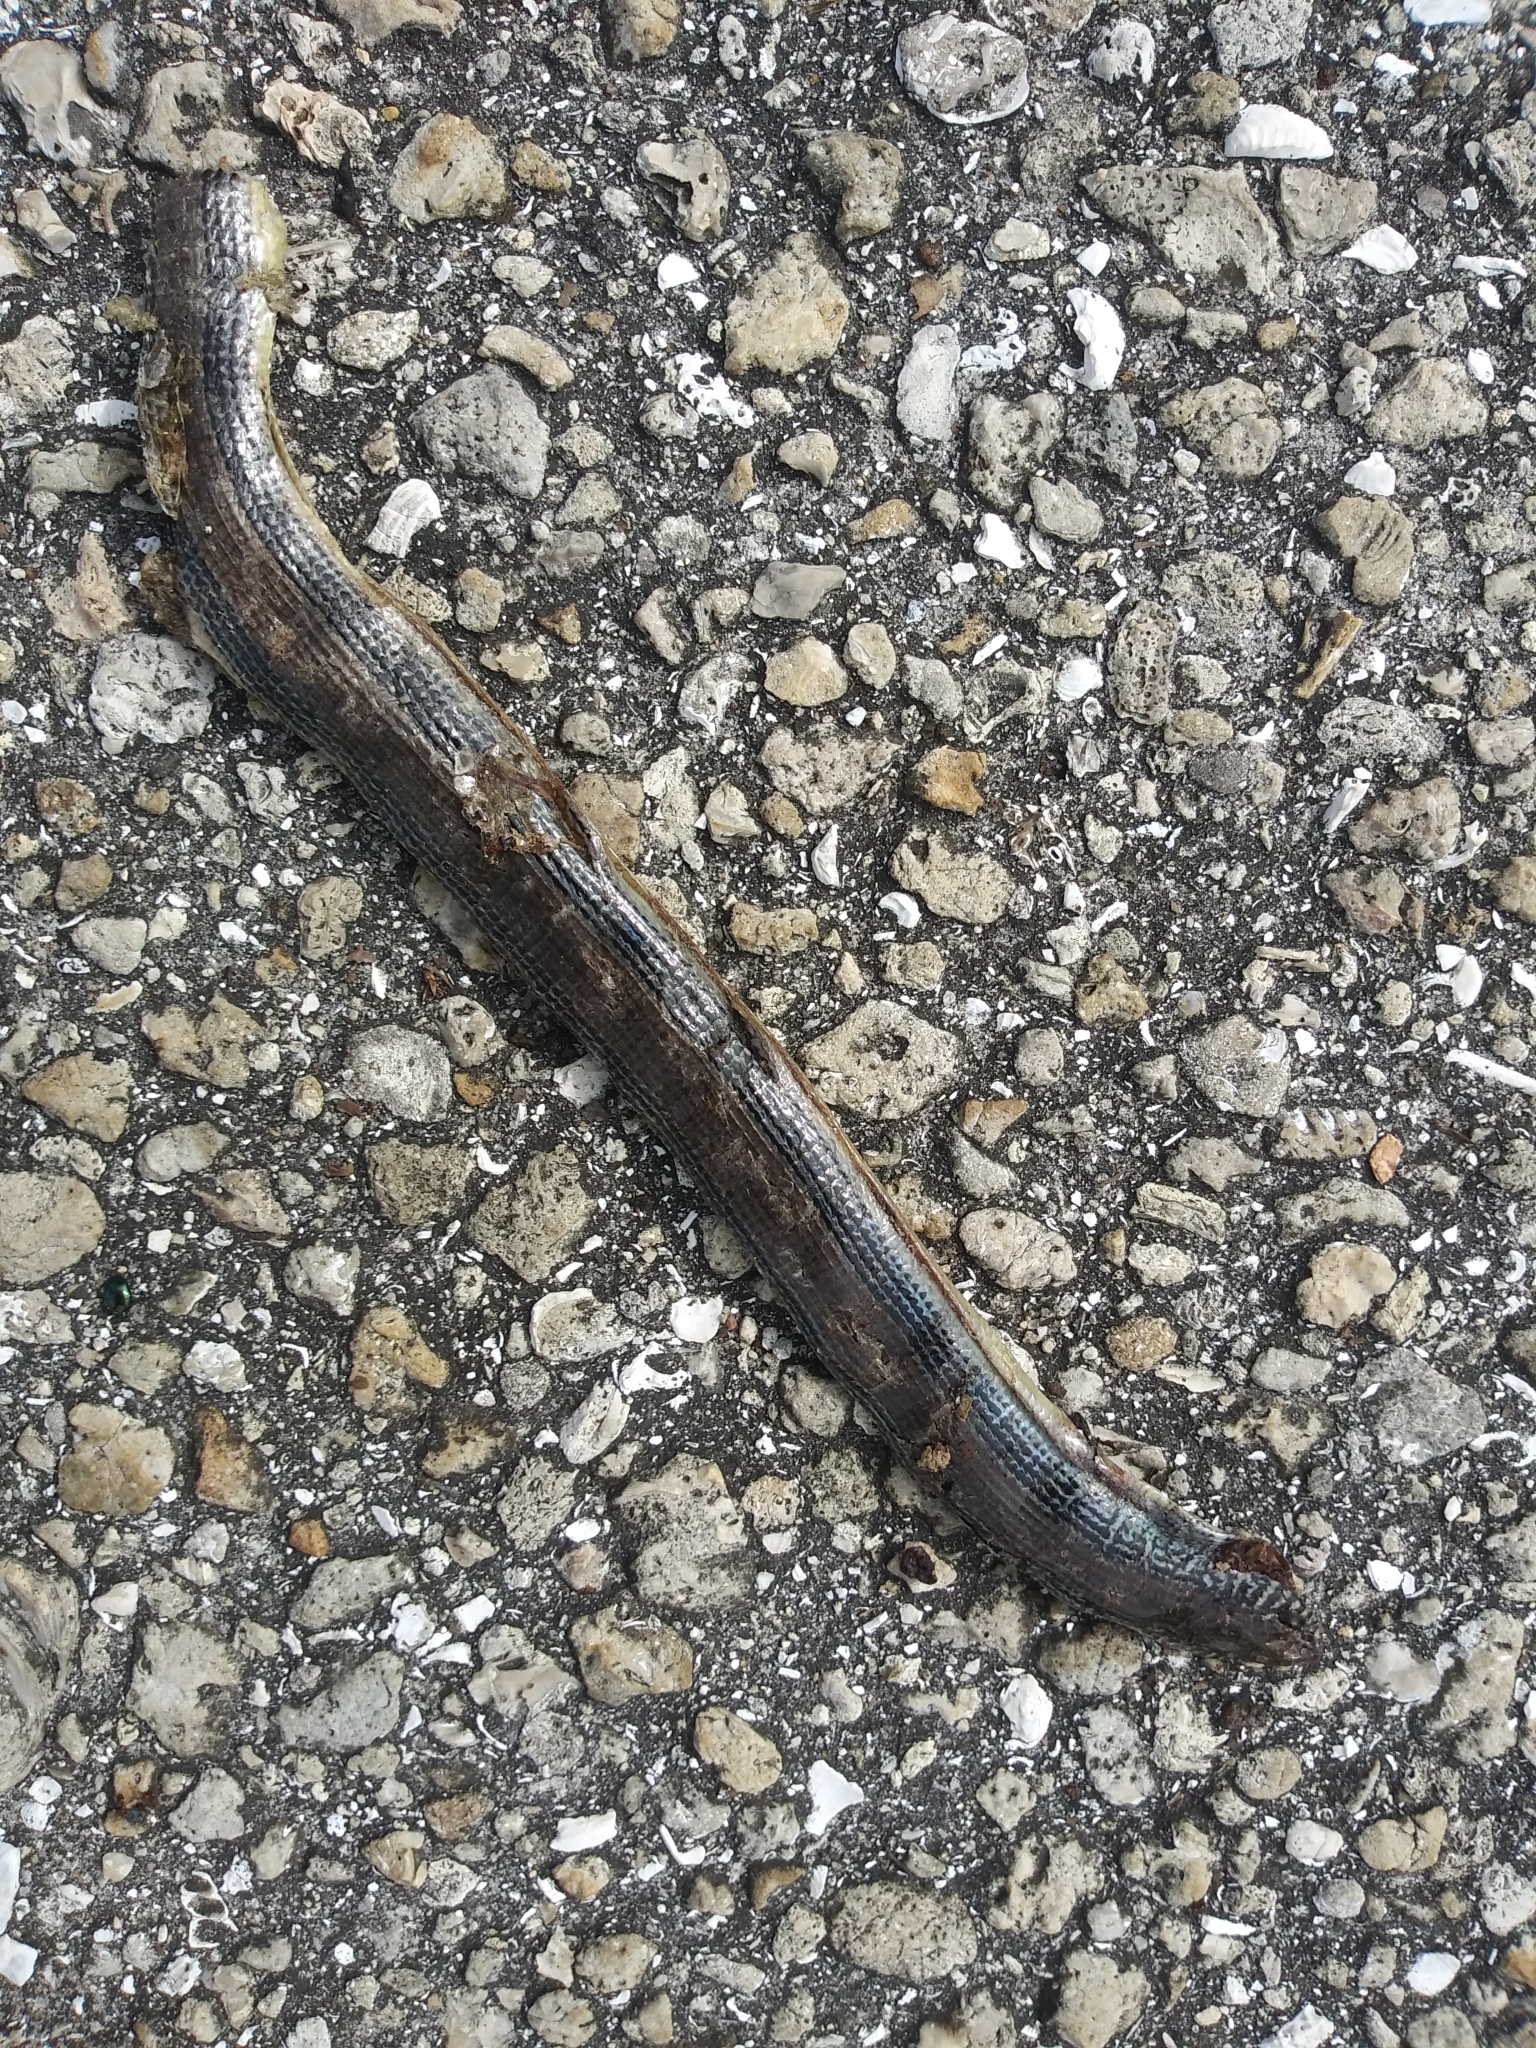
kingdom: Animalia
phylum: Chordata
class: Squamata
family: Anguidae
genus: Ophisaurus
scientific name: Ophisaurus ventralis
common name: Eastern glass lizard
